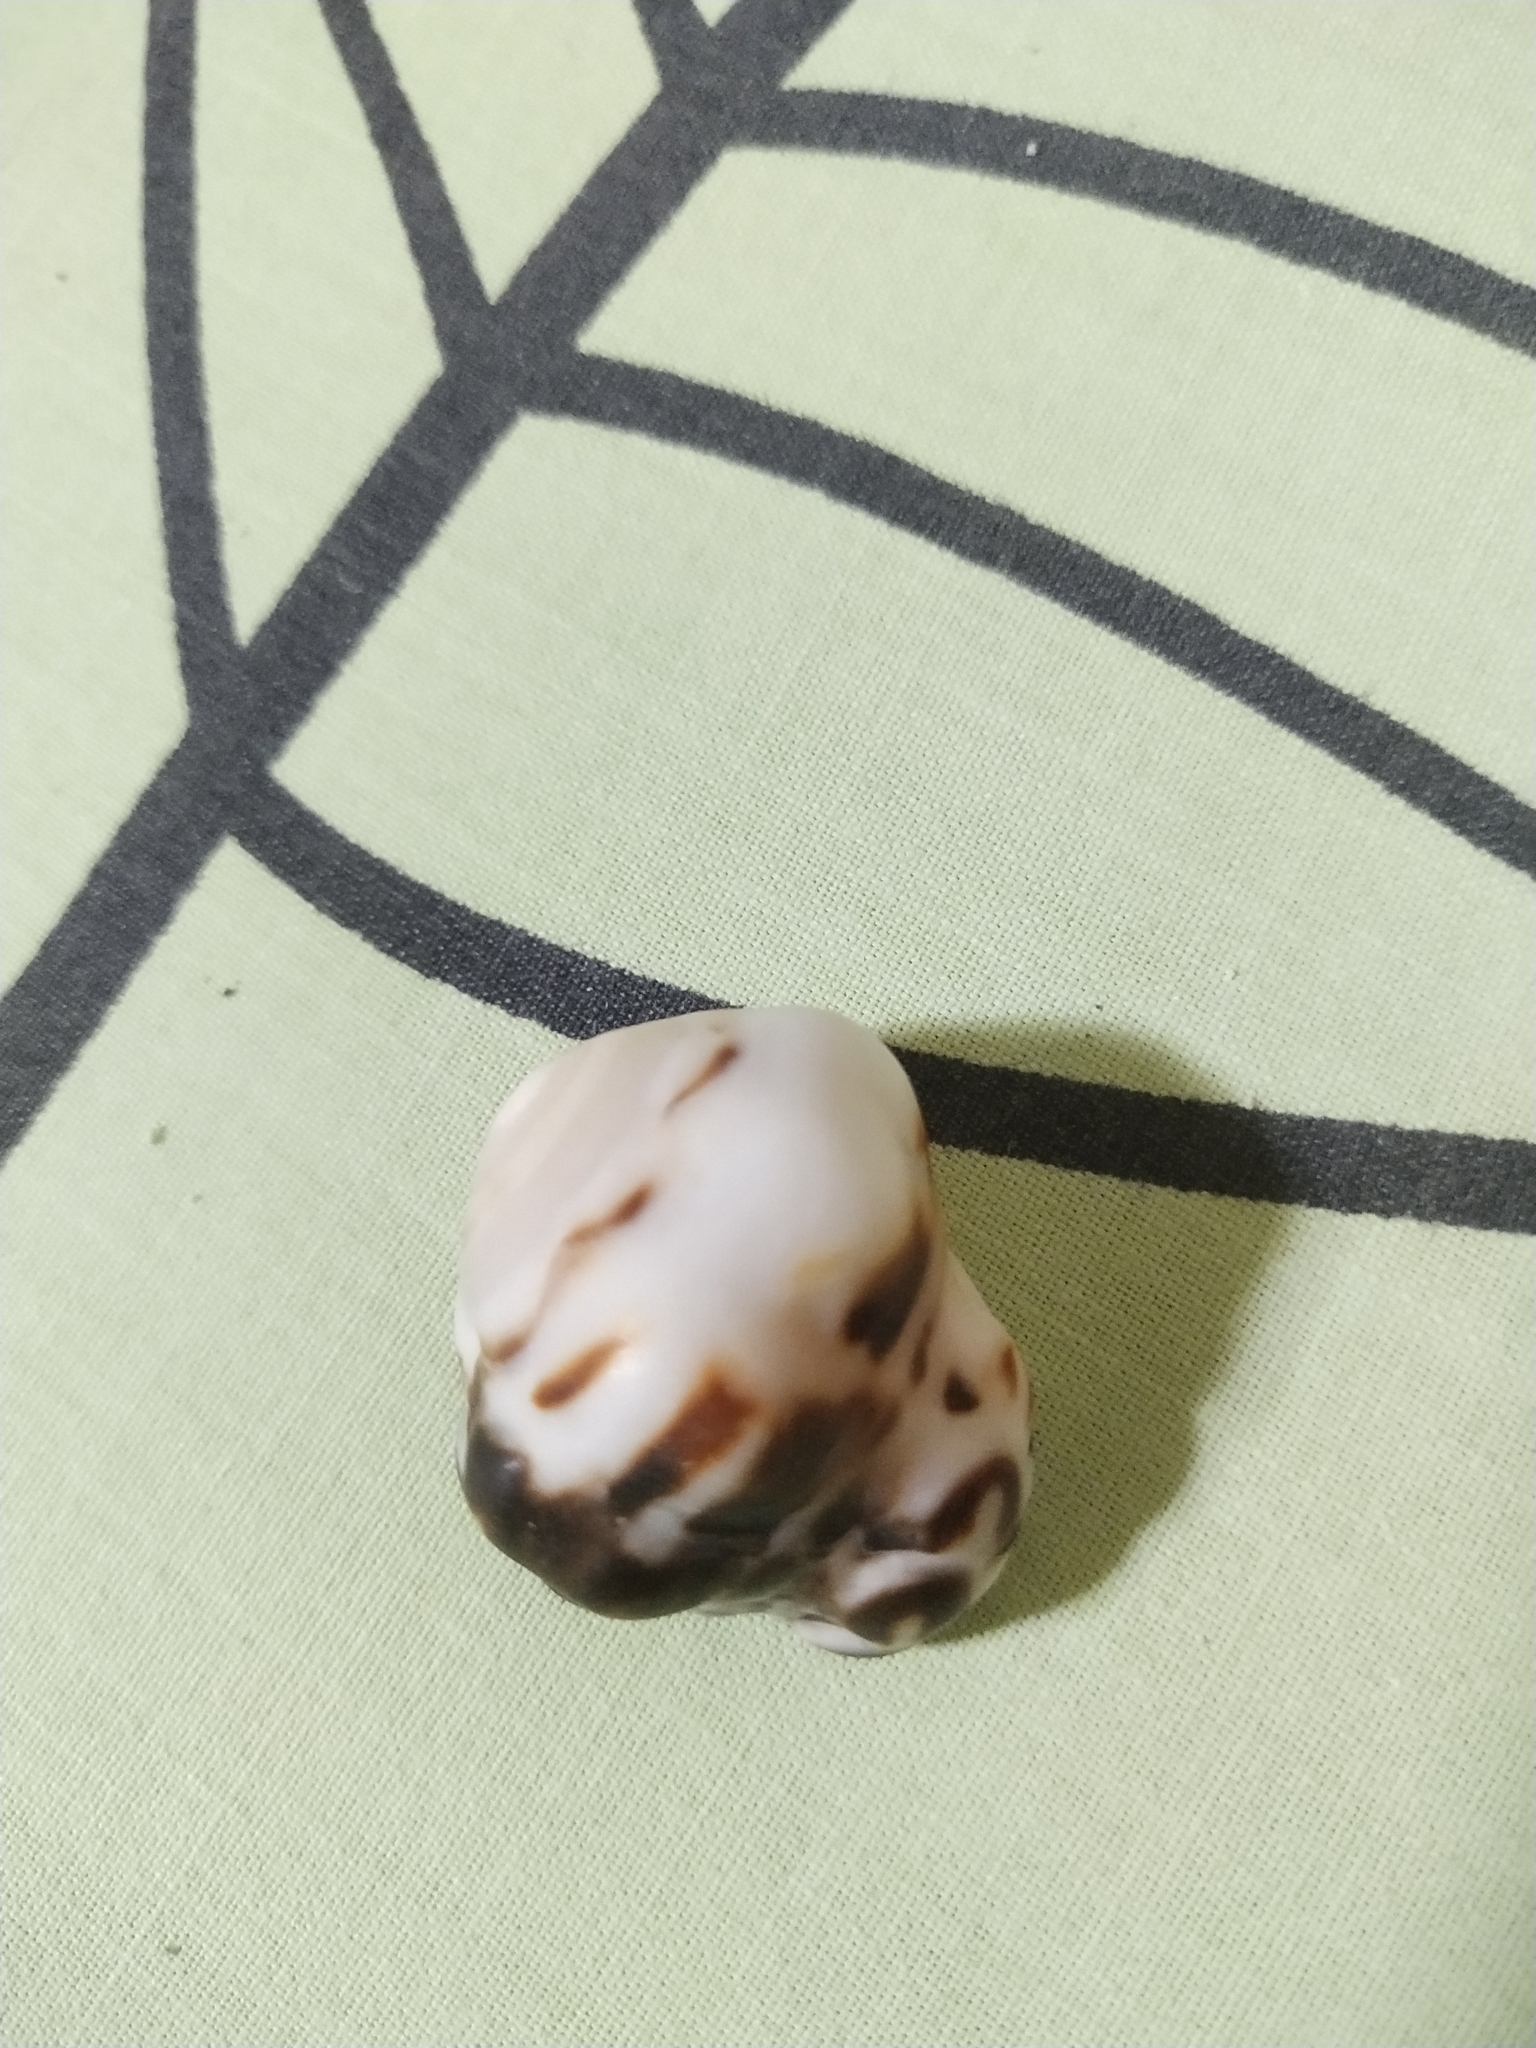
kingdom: Animalia
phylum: Mollusca
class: Gastropoda
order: Neogastropoda
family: Conidae
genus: Conus
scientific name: Conus ebraeus
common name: Hebrew cone
